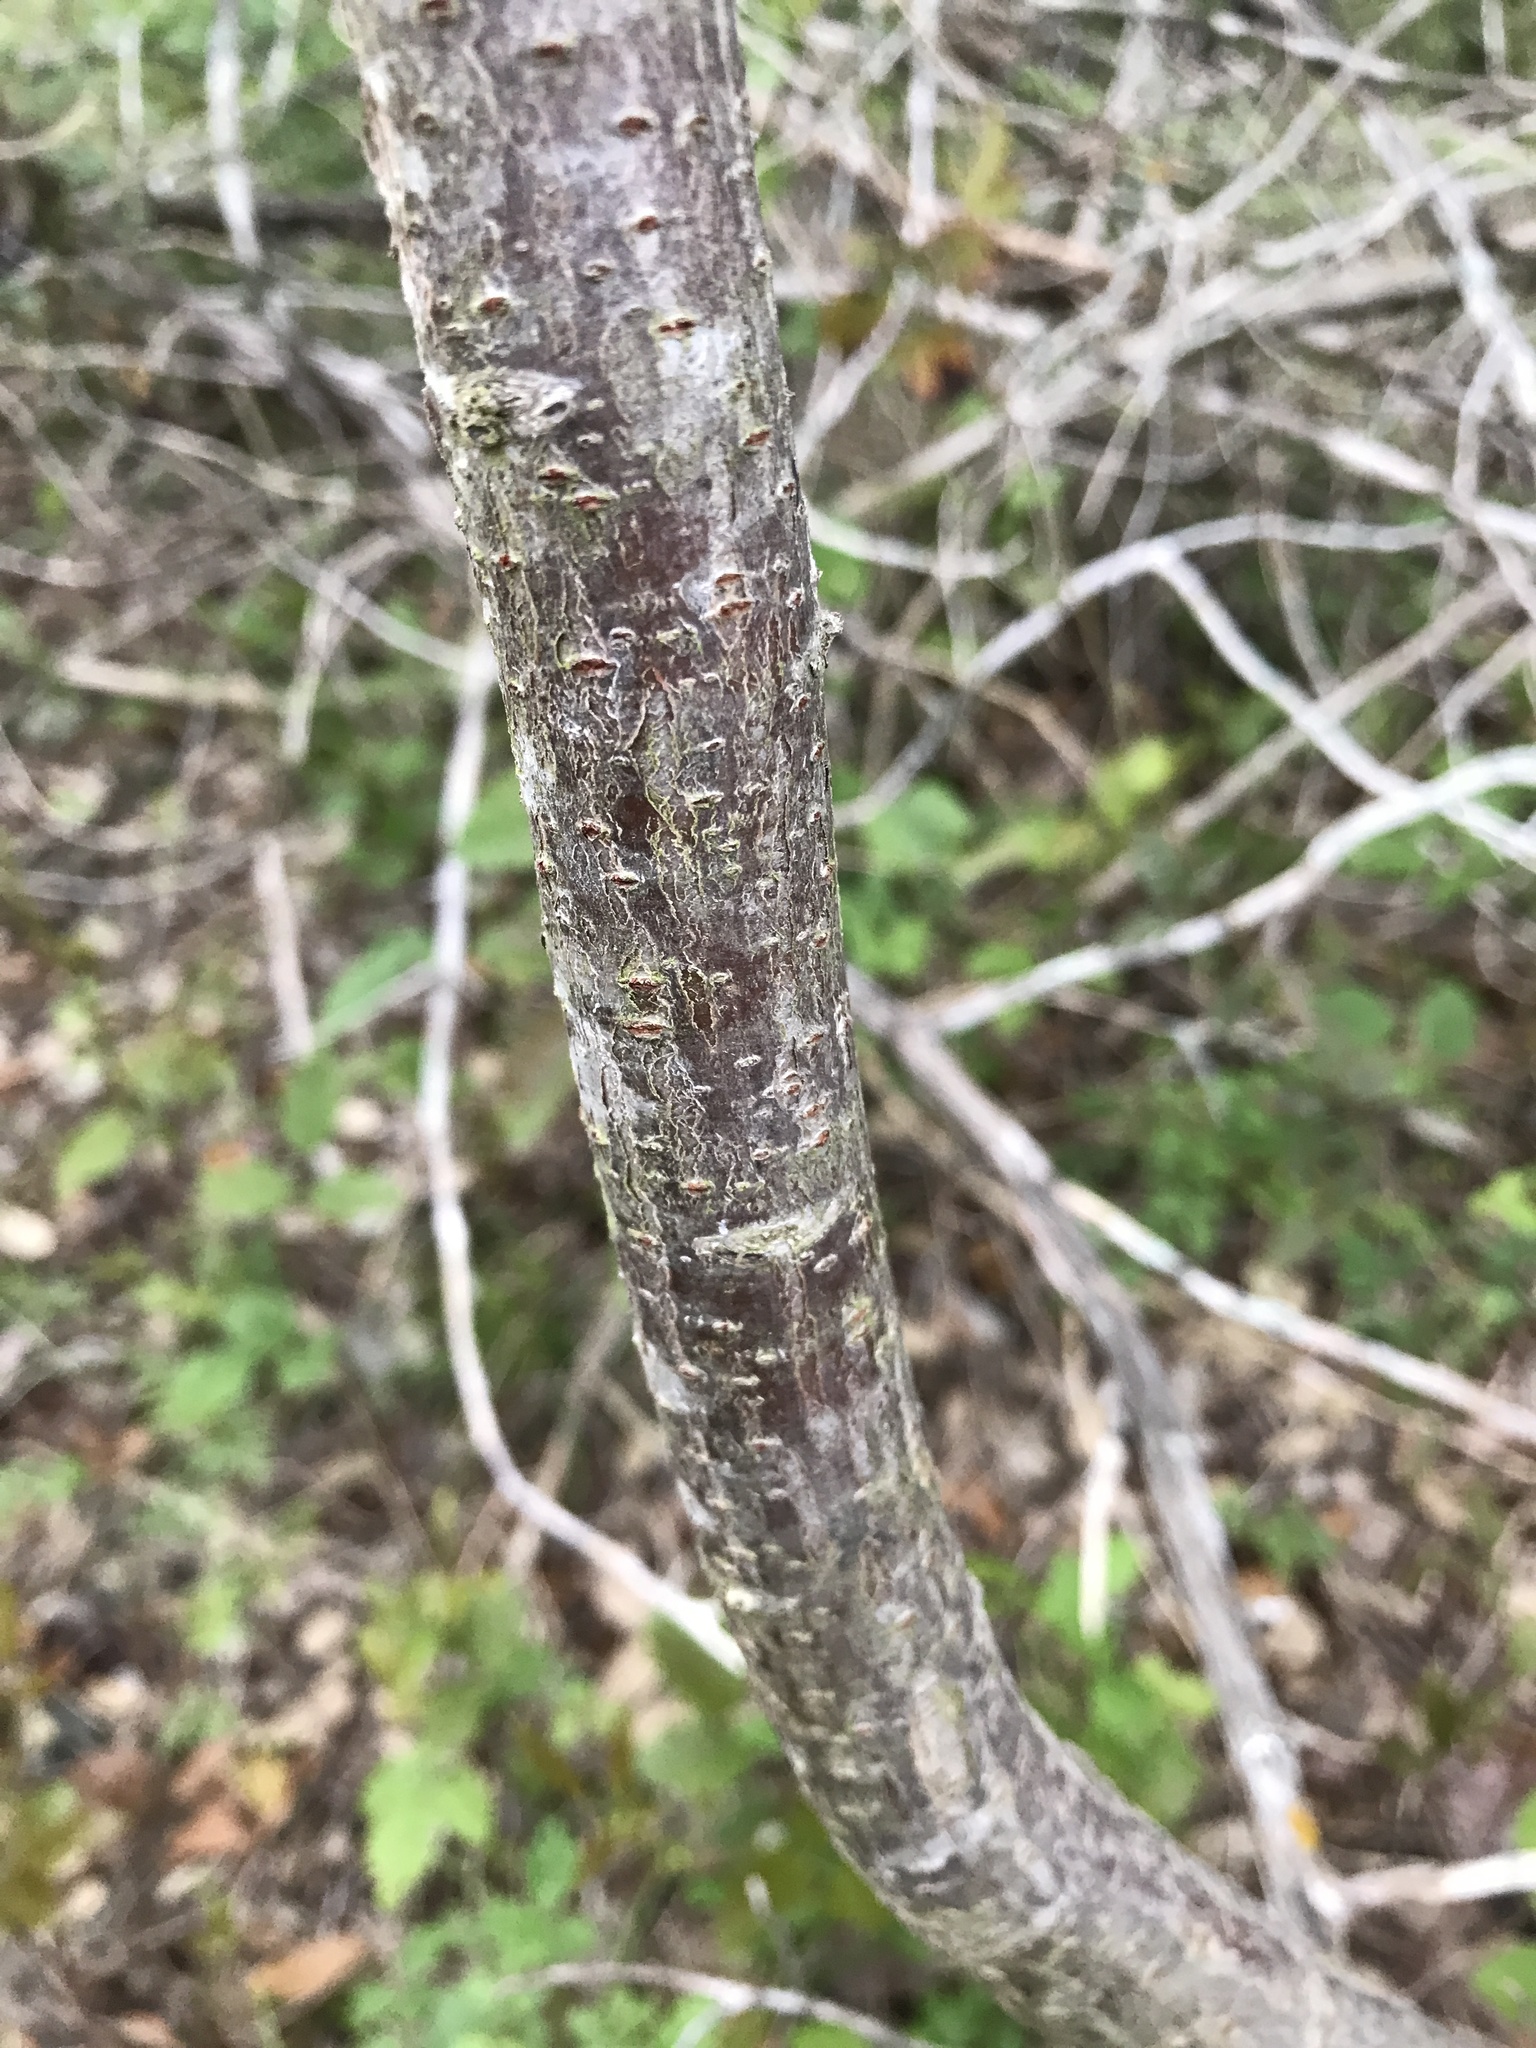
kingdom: Plantae
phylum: Tracheophyta
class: Magnoliopsida
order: Sapindales
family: Anacardiaceae
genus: Rhus
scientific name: Rhus lanceolata
